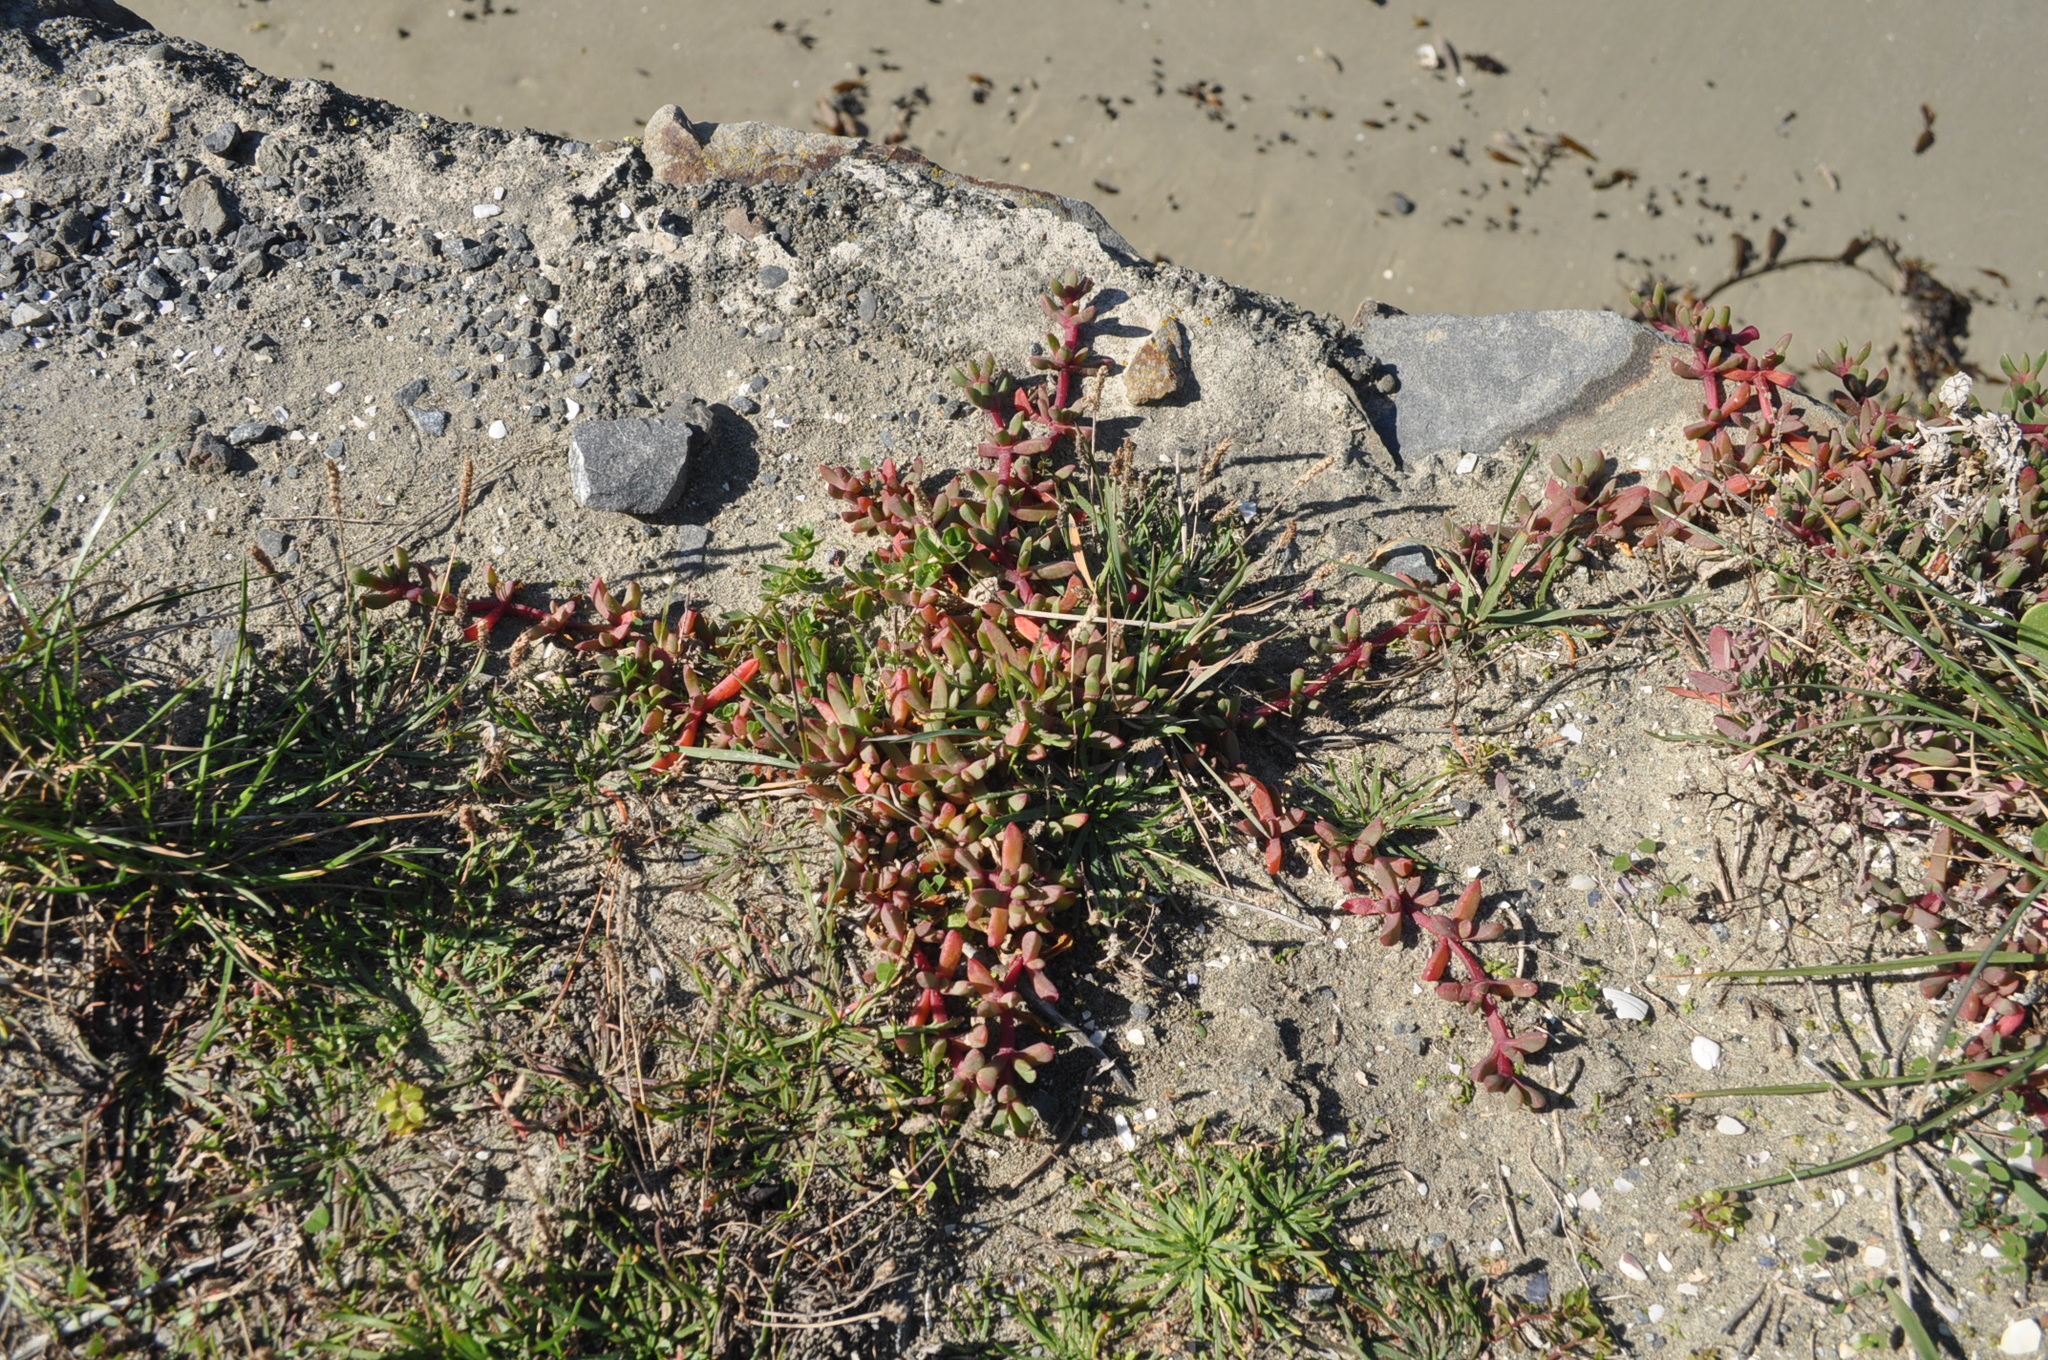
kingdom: Plantae
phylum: Tracheophyta
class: Magnoliopsida
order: Caryophyllales
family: Aizoaceae
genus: Disphyma
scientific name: Disphyma australe
